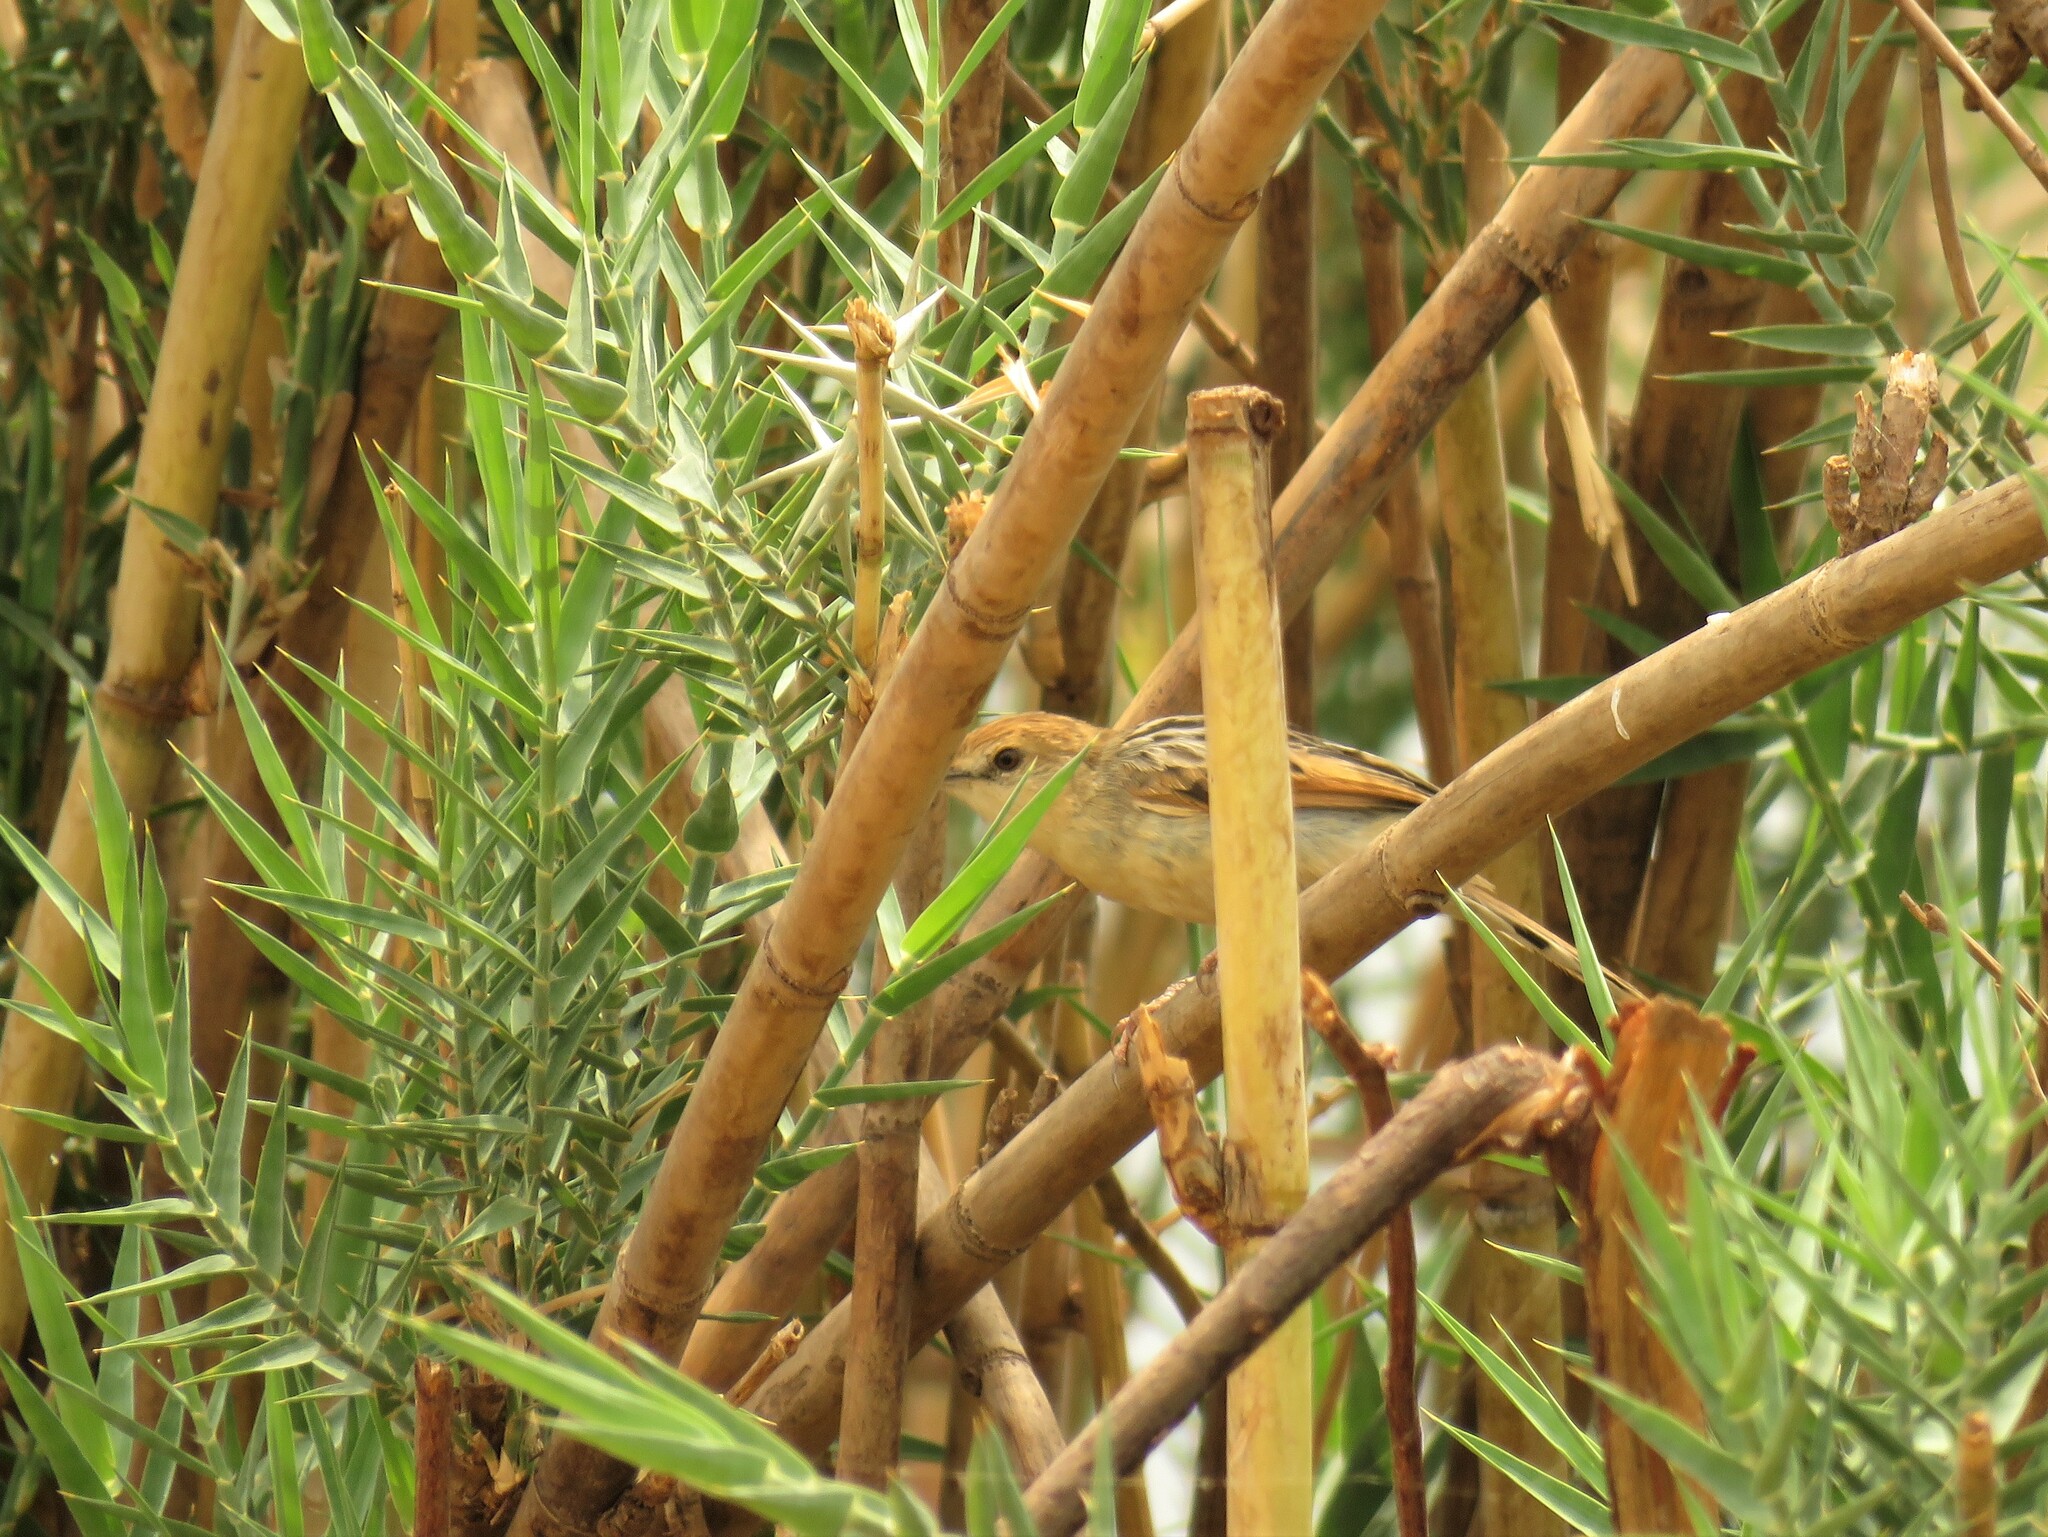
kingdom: Animalia
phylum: Chordata
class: Aves
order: Passeriformes
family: Cisticolidae
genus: Cisticola
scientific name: Cisticola luapula
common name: Luapula cisticola
